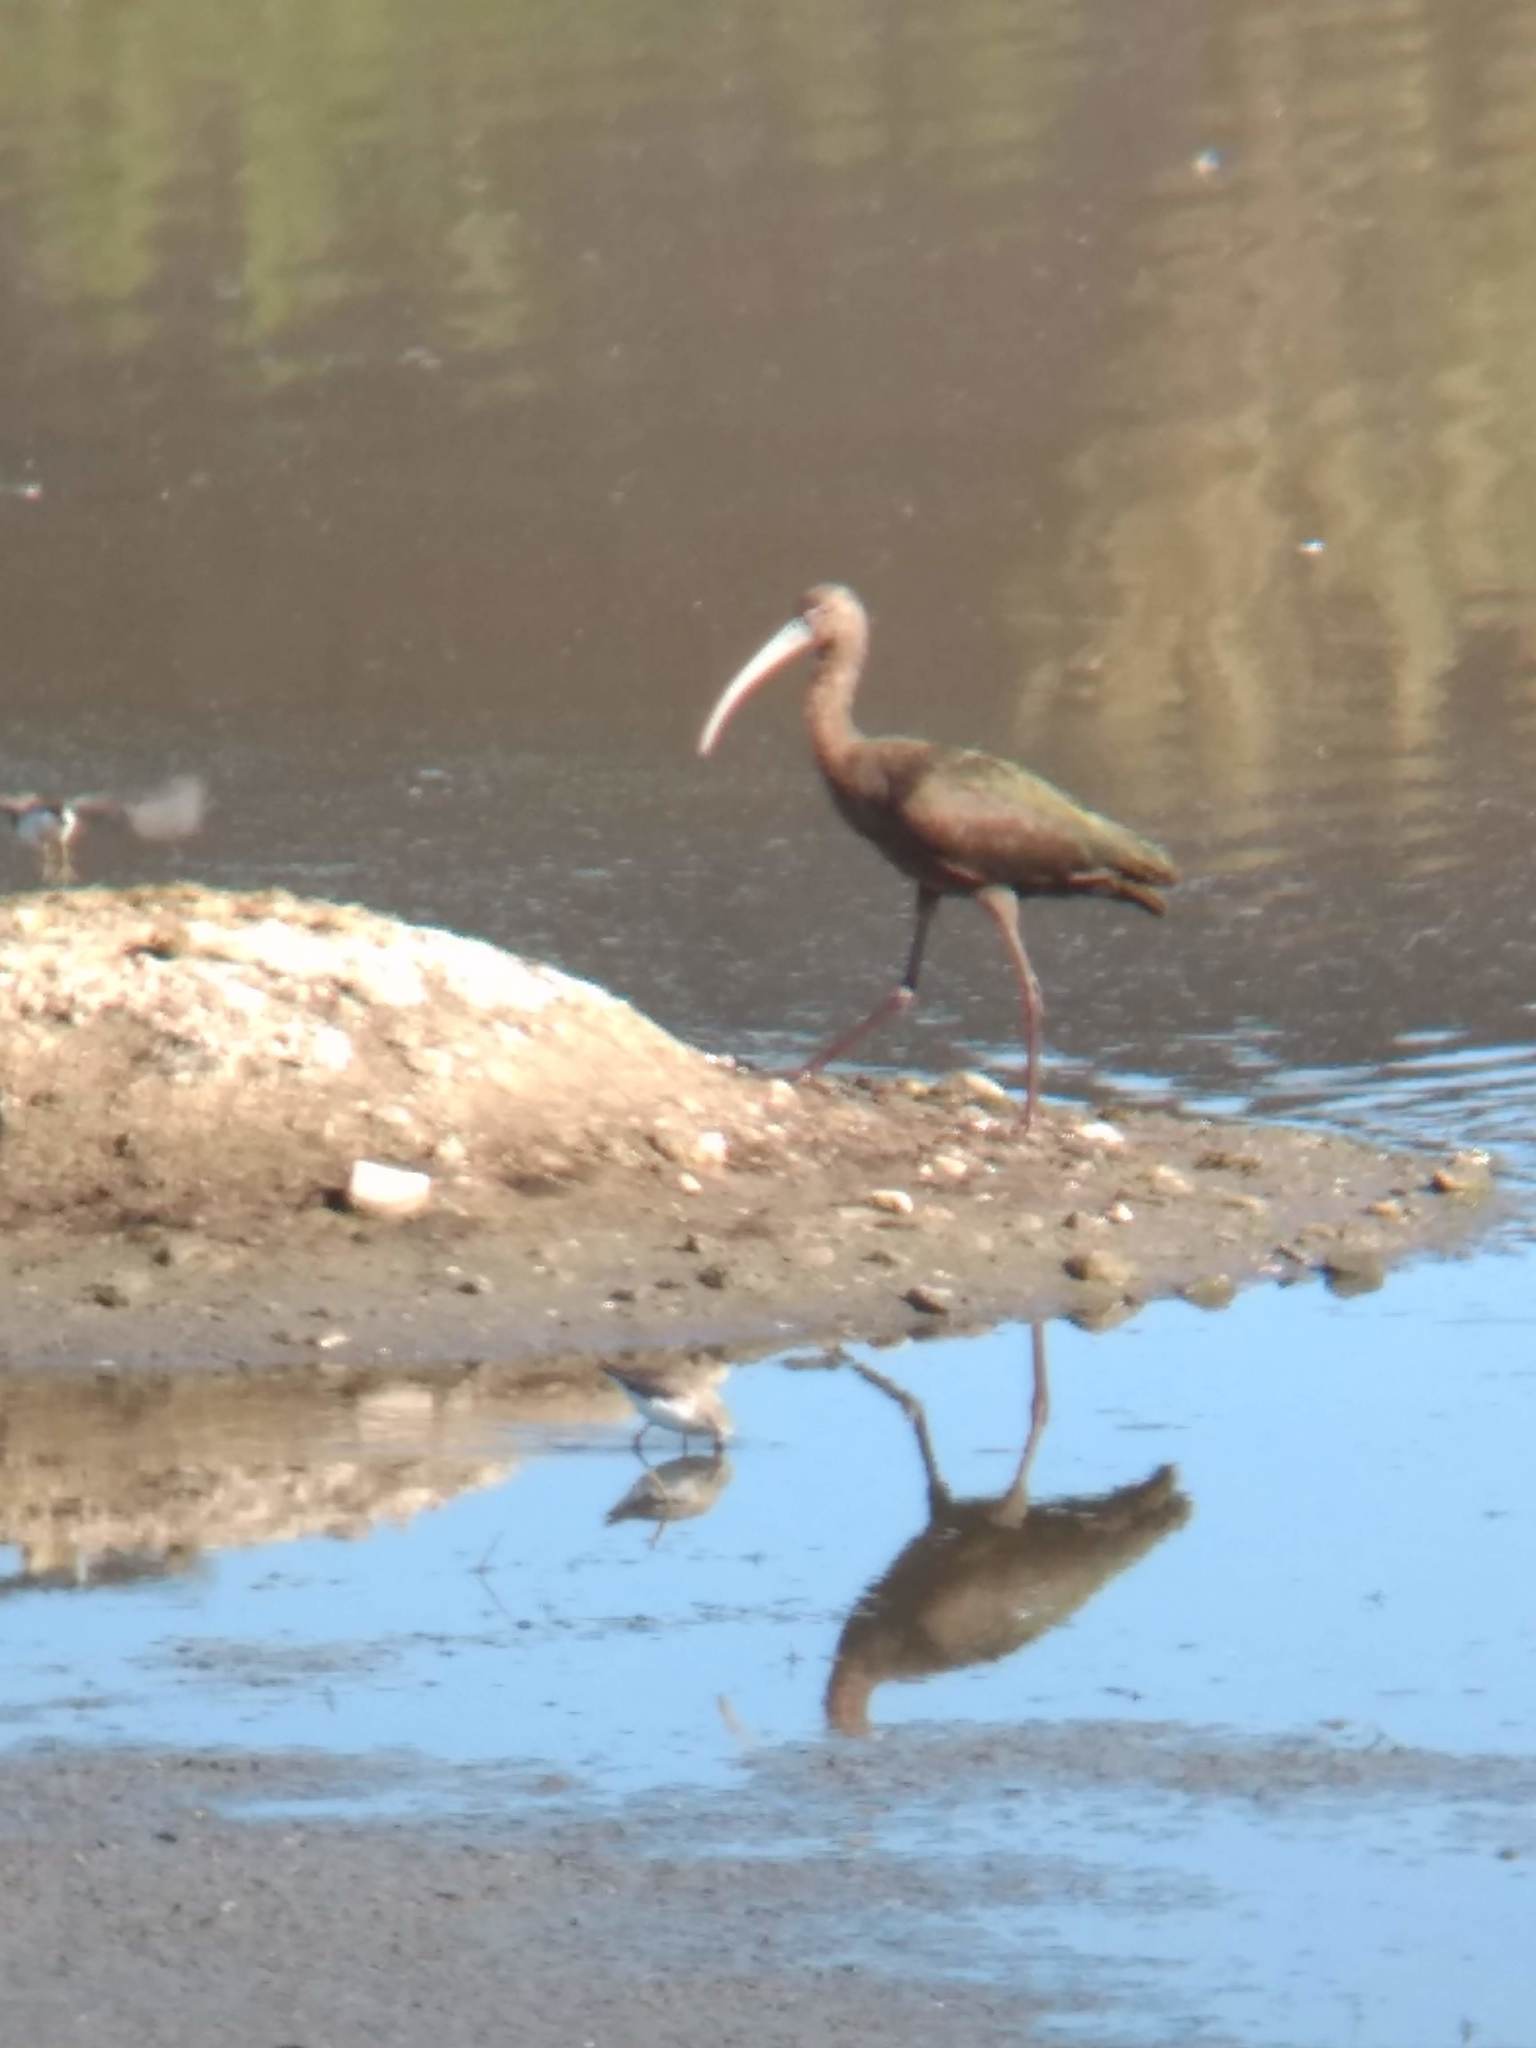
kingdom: Animalia
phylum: Chordata
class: Aves
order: Pelecaniformes
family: Threskiornithidae
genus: Plegadis
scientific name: Plegadis chihi
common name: White-faced ibis
